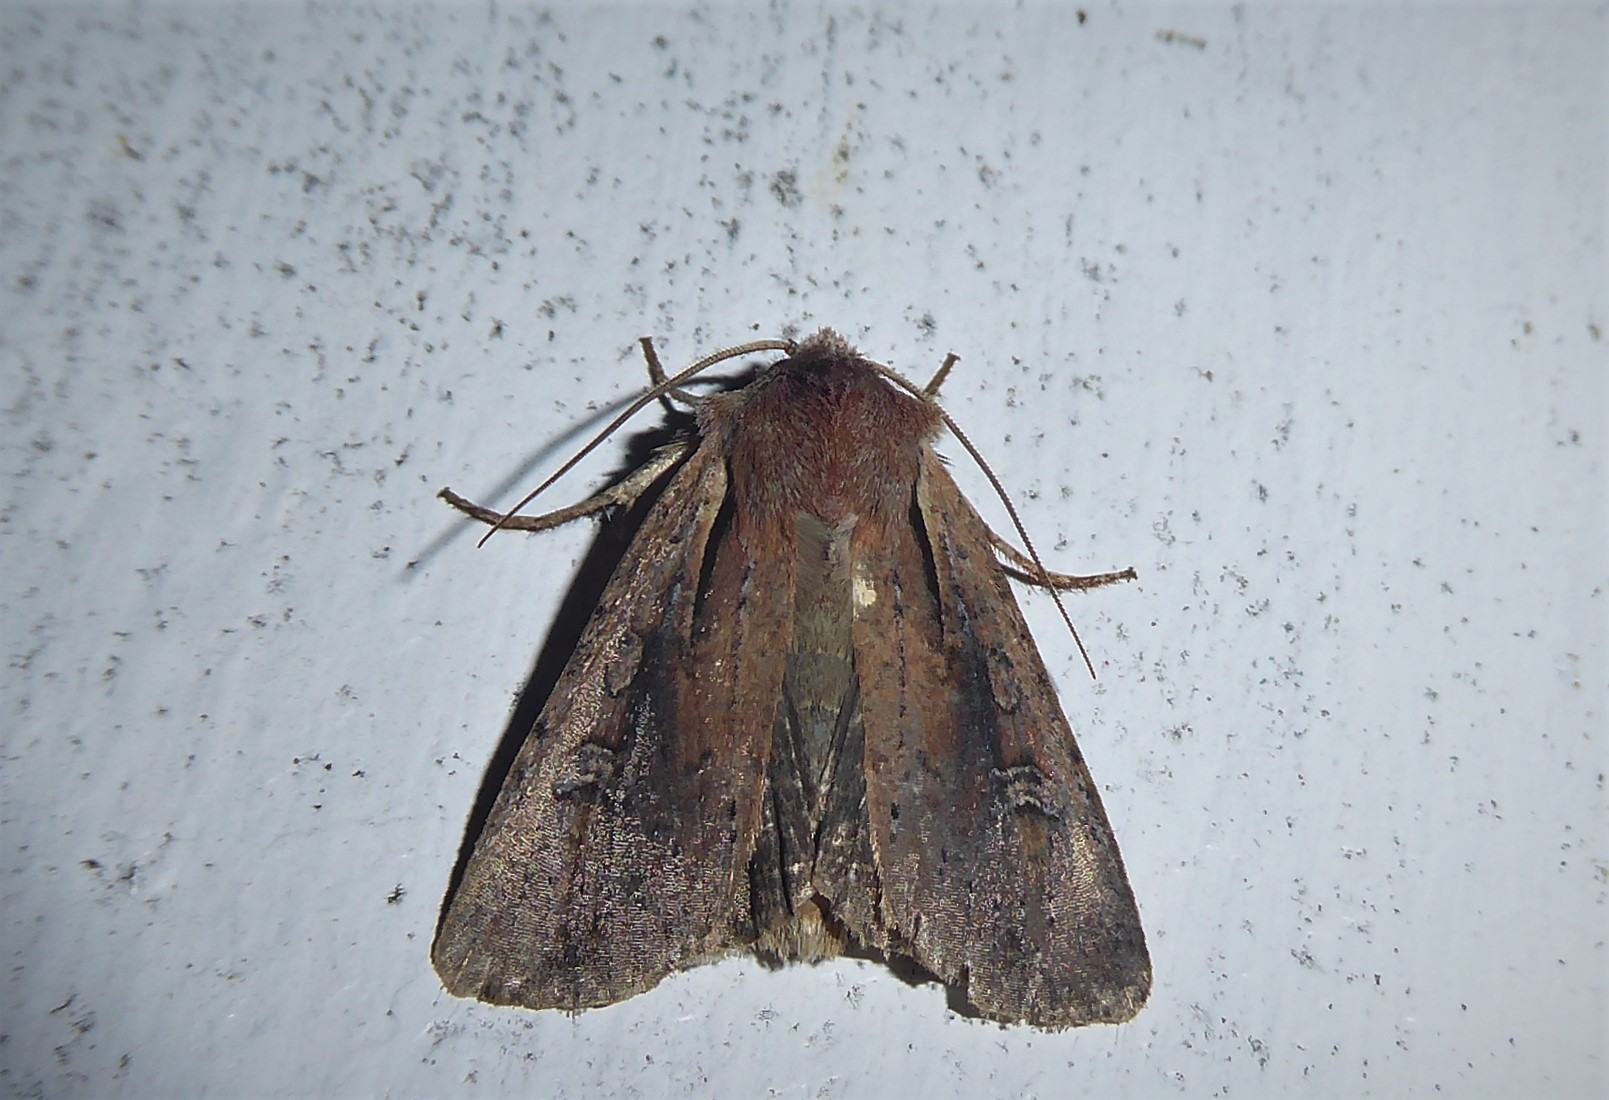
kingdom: Animalia
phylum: Arthropoda
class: Insecta
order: Lepidoptera
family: Noctuidae
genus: Ichneutica
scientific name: Ichneutica atristriga
